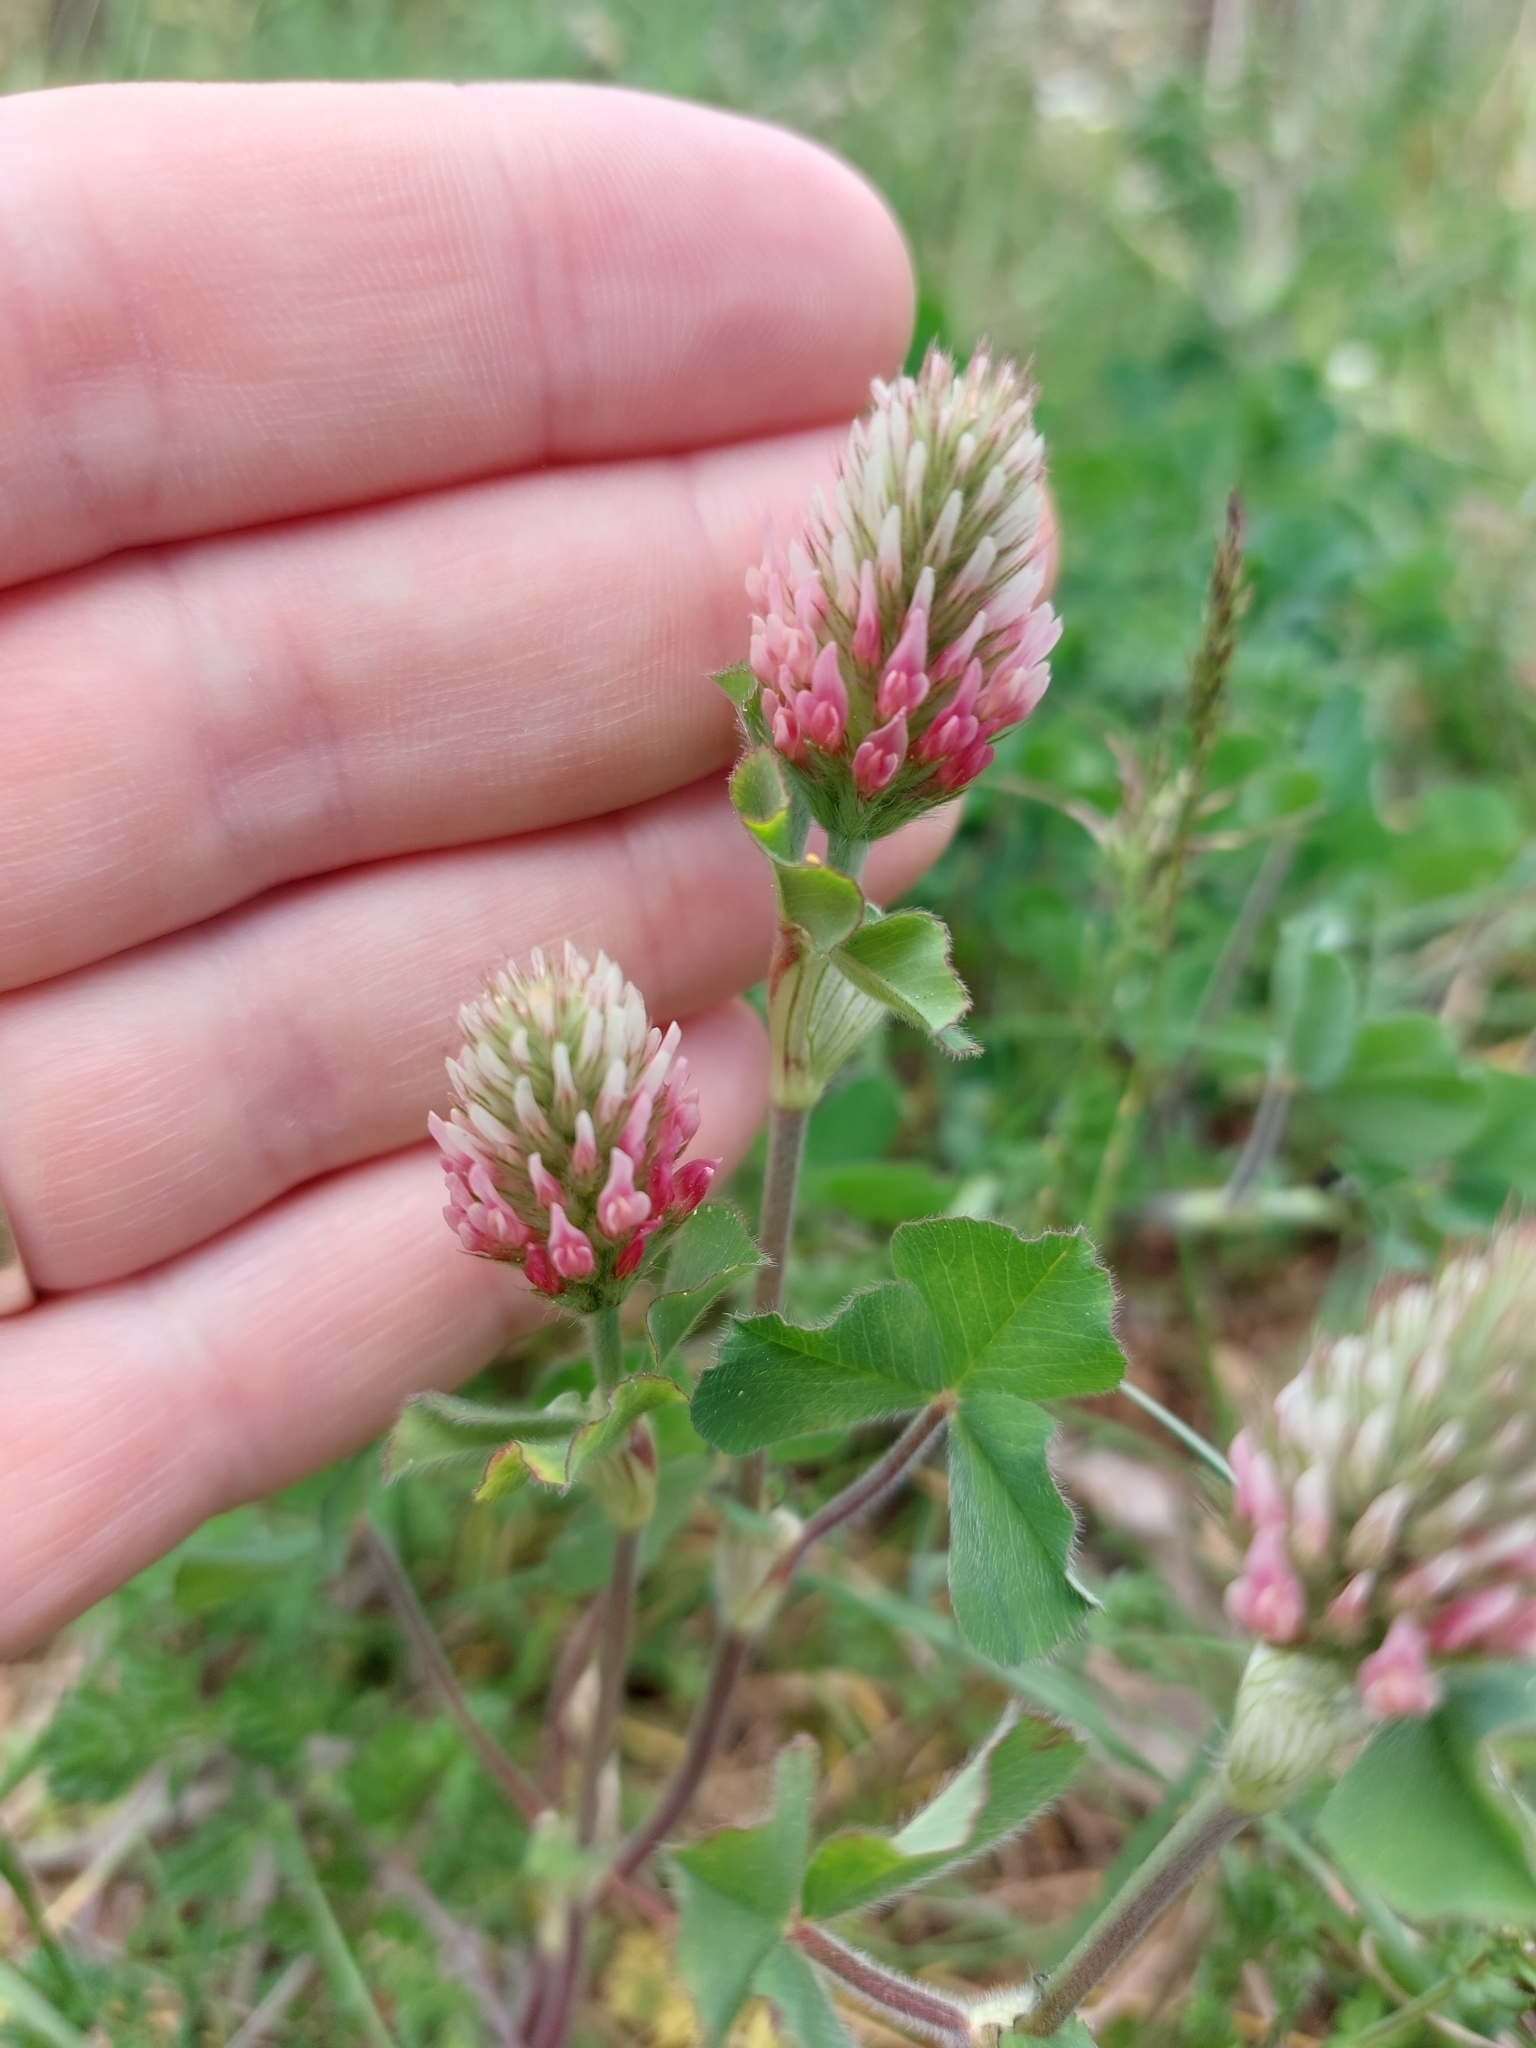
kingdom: Plantae
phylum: Tracheophyta
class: Magnoliopsida
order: Fabales
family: Fabaceae
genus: Trifolium
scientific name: Trifolium incarnatum
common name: Crimson clover
